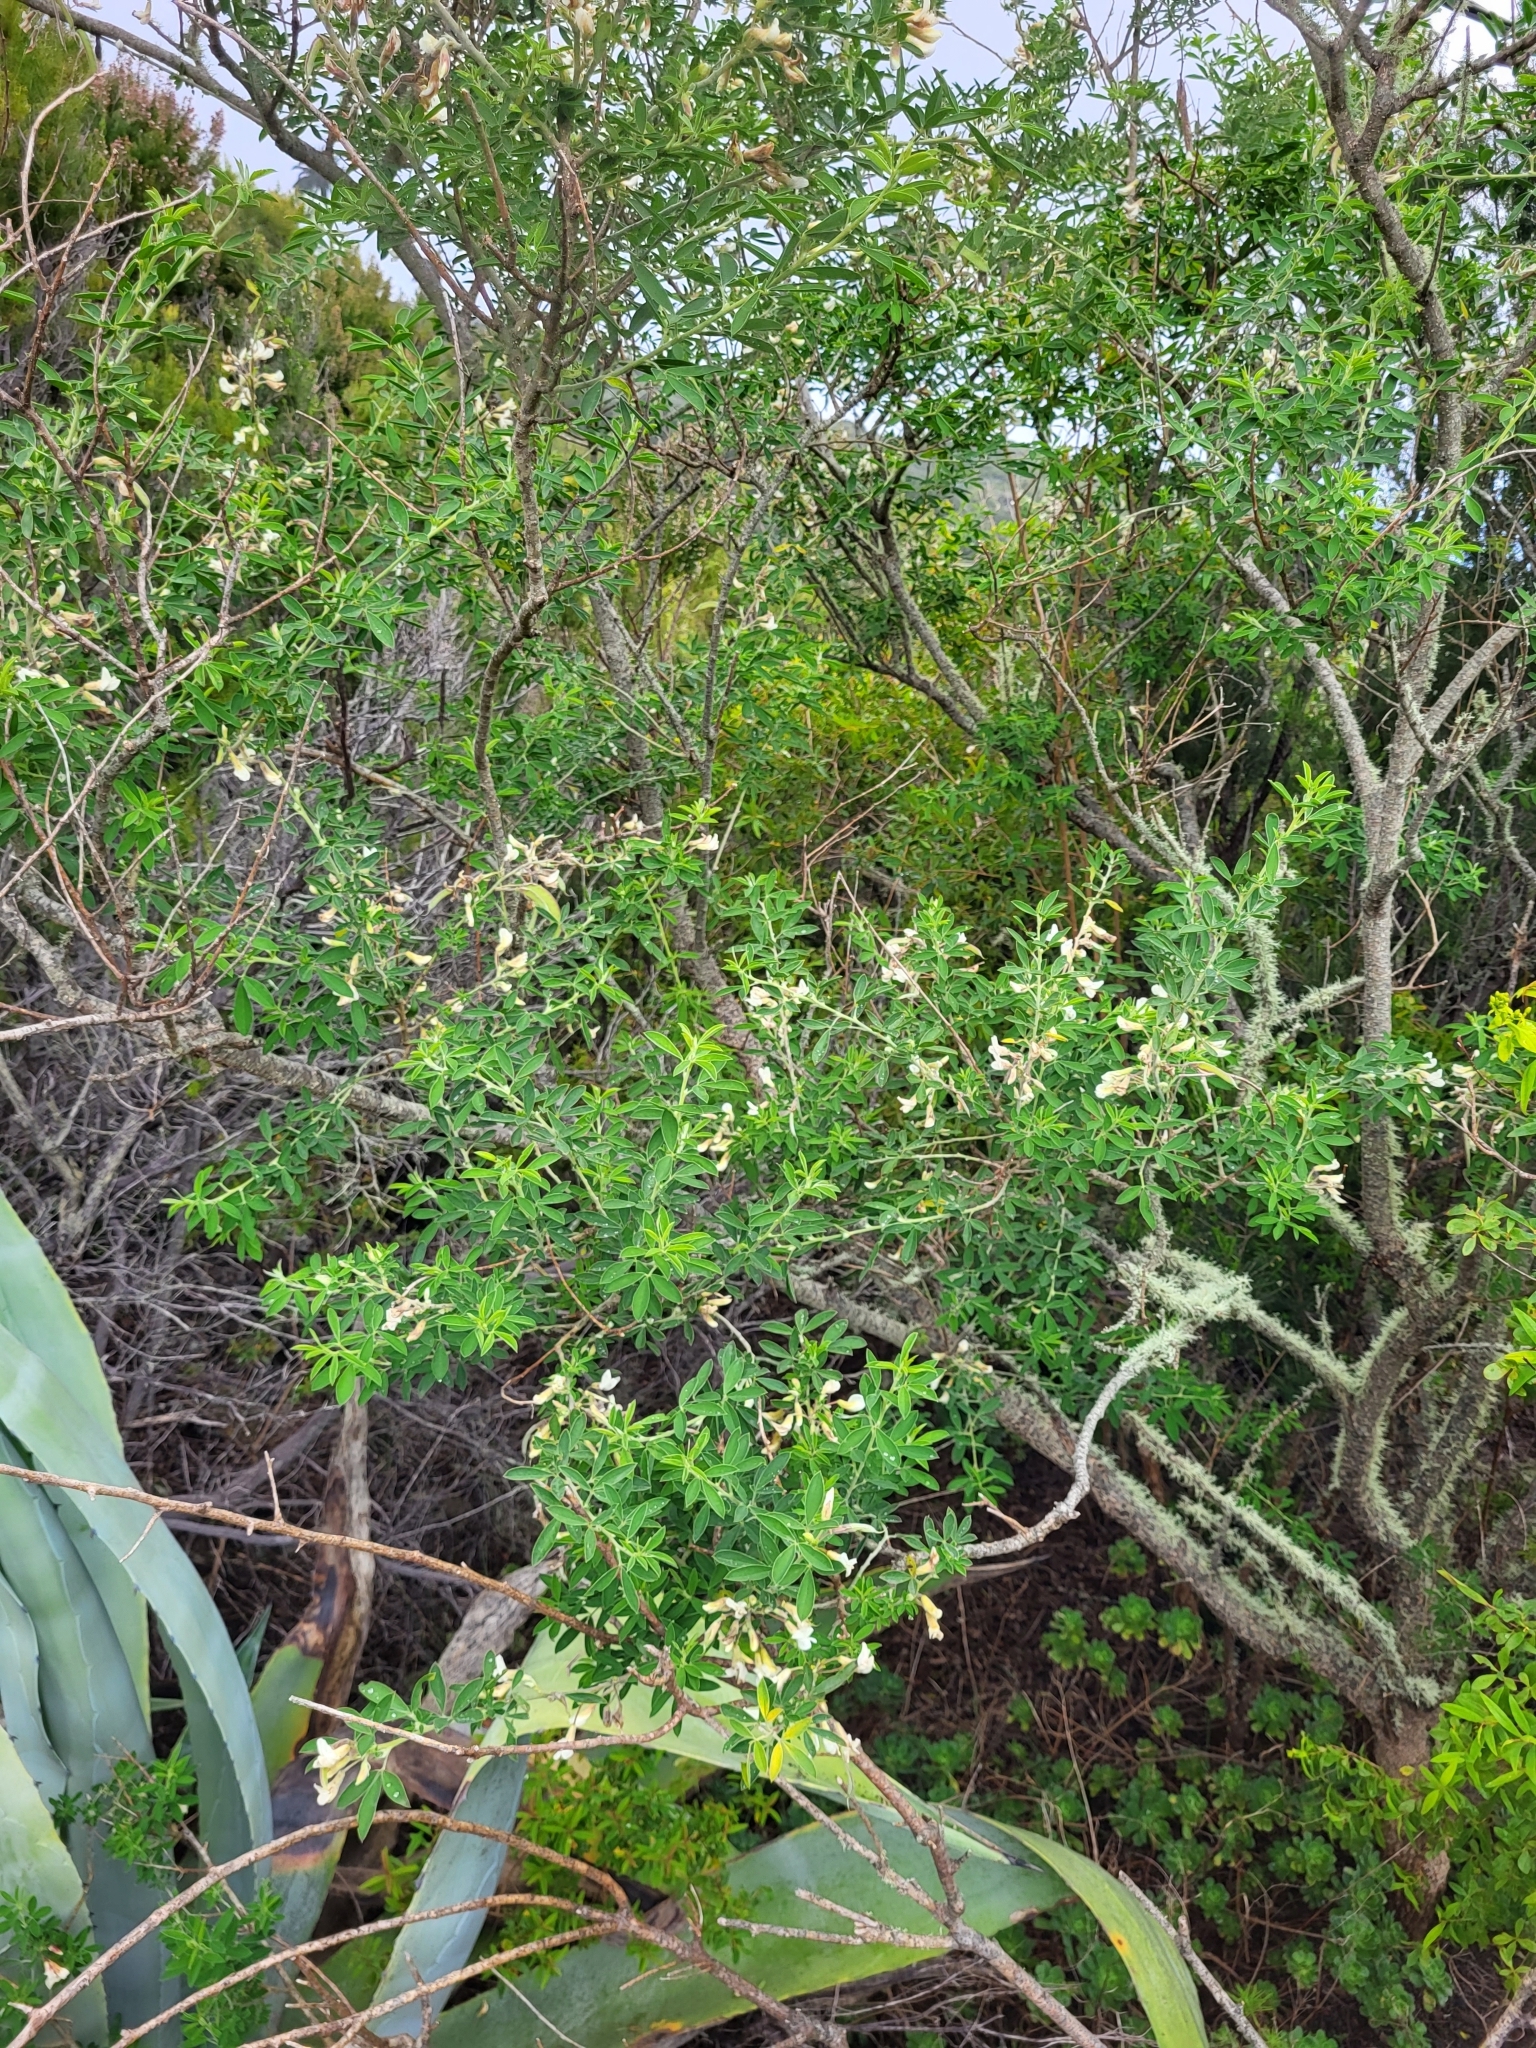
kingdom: Plantae
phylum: Tracheophyta
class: Magnoliopsida
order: Fabales
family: Fabaceae
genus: Chamaecytisus
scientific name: Chamaecytisus prolifer
